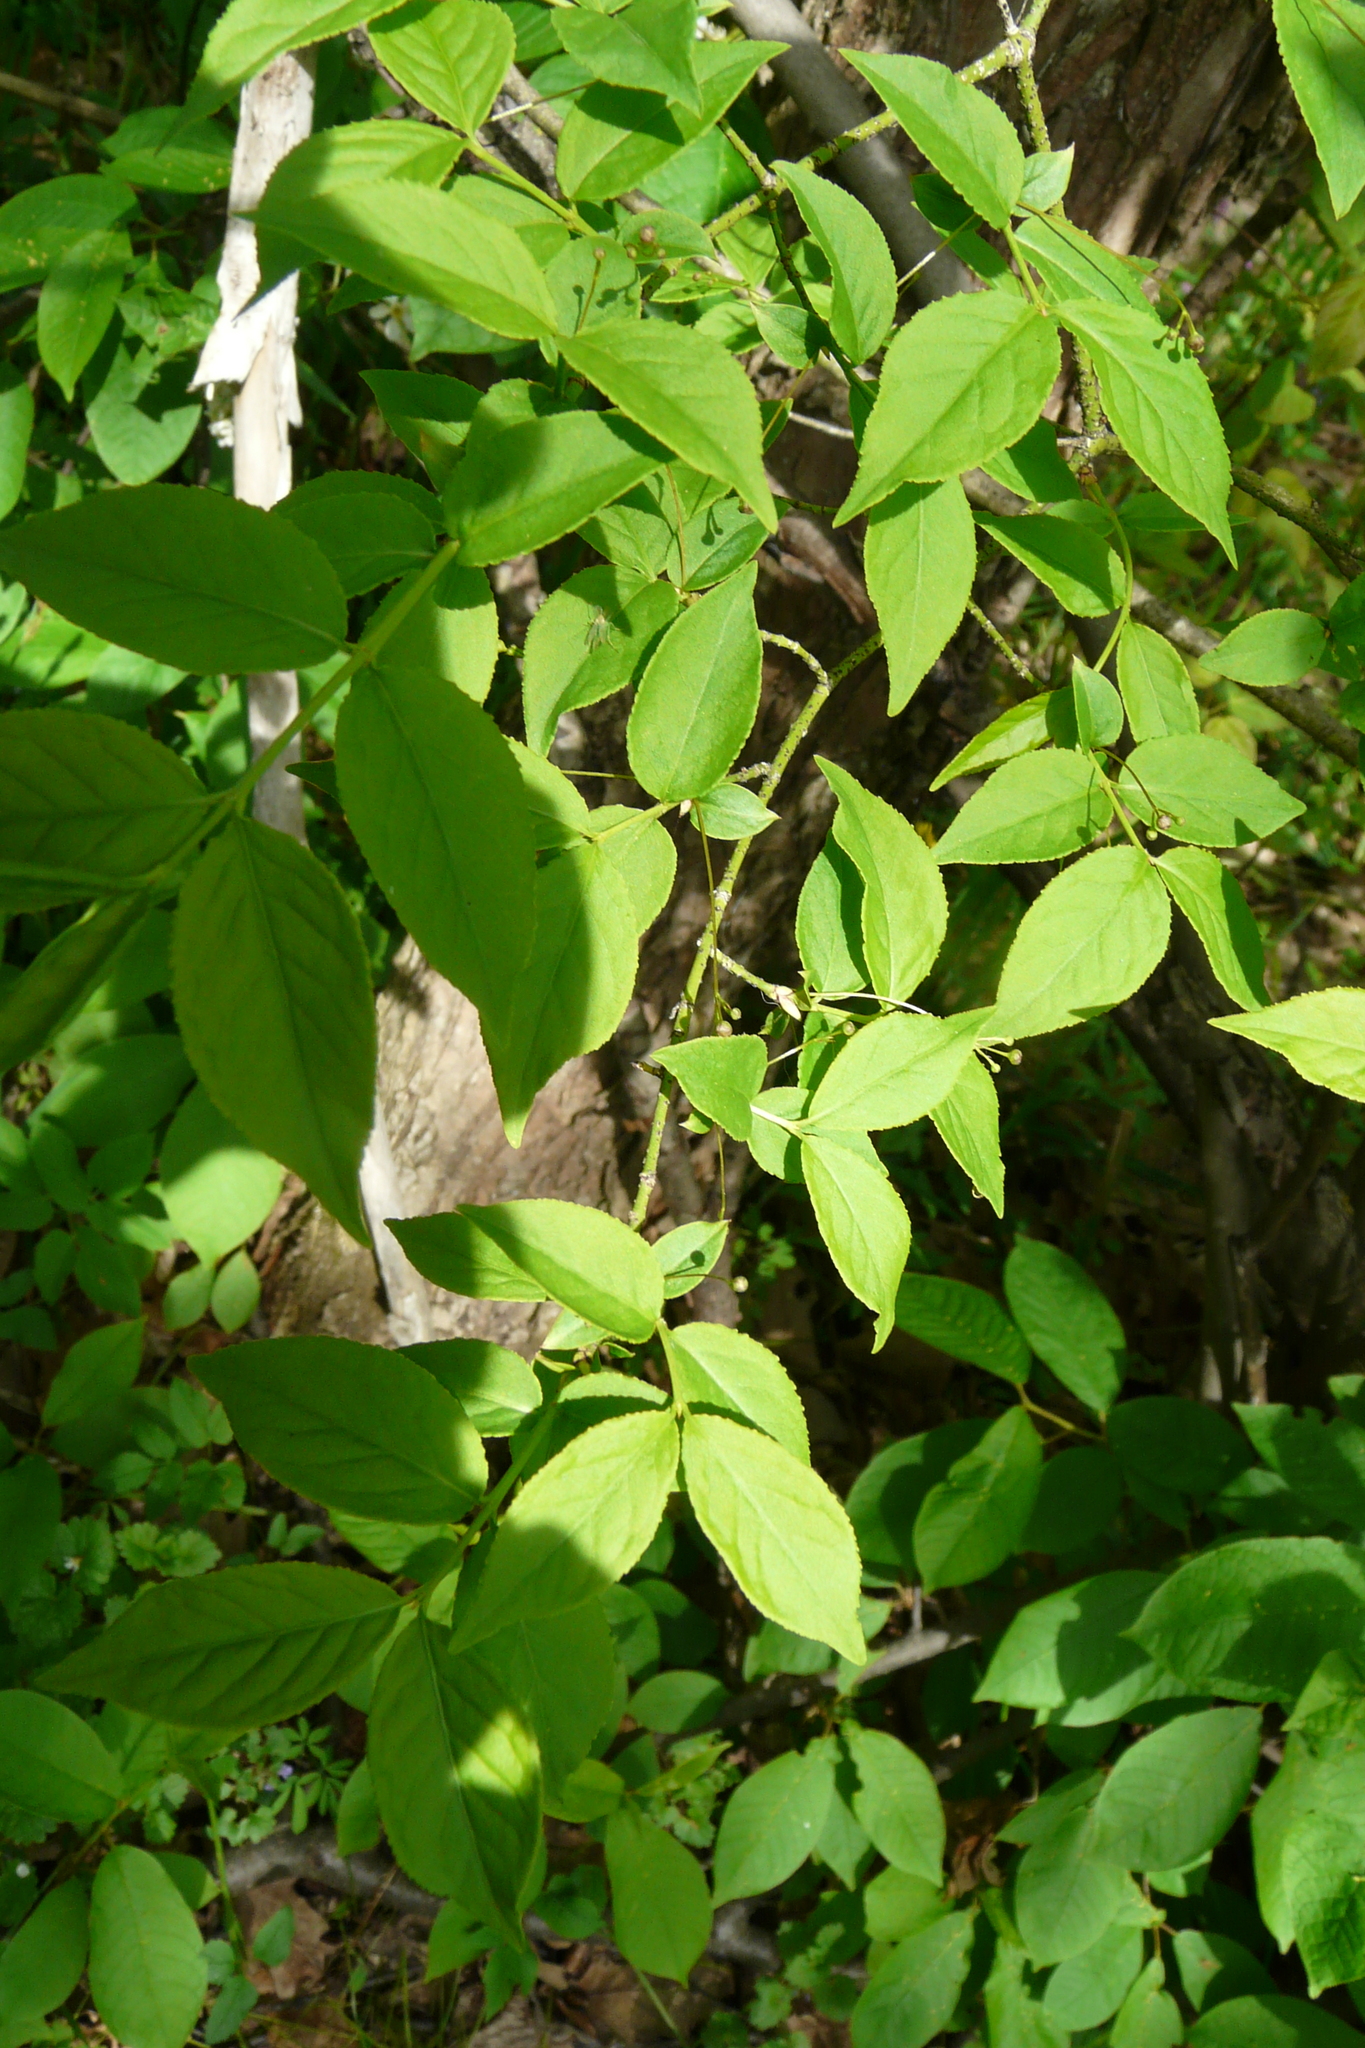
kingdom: Plantae
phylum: Tracheophyta
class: Magnoliopsida
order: Celastrales
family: Celastraceae
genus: Euonymus
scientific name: Euonymus verrucosus
